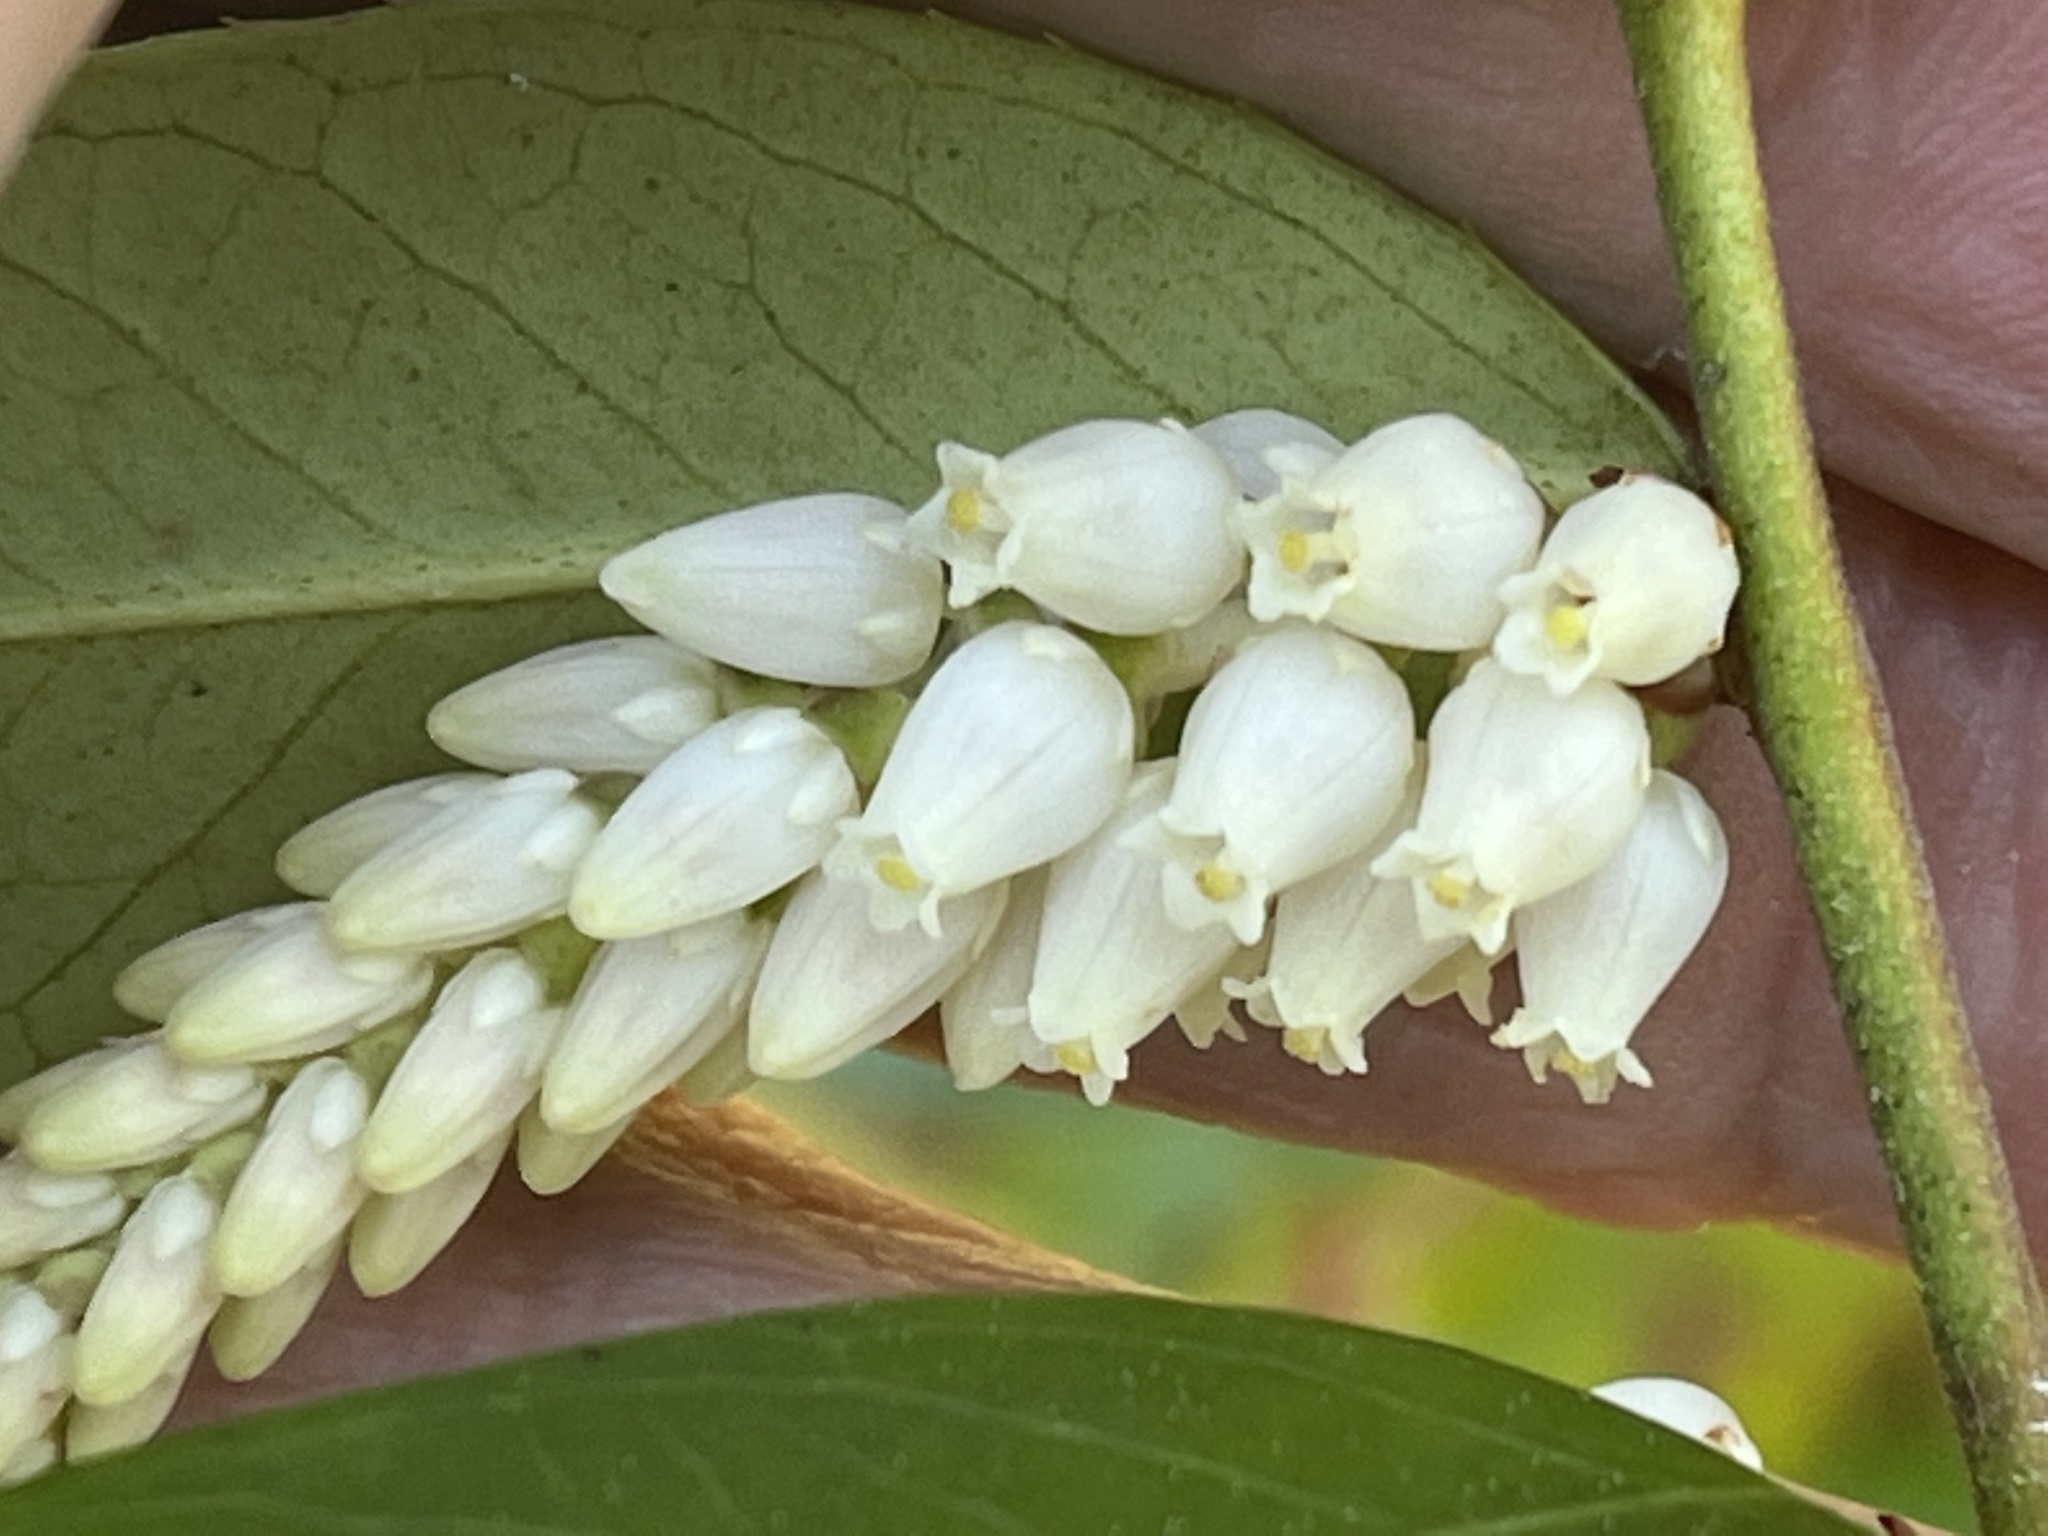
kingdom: Plantae
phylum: Tracheophyta
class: Magnoliopsida
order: Ericales
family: Ericaceae
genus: Leucothoe
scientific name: Leucothoe fontanesiana
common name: Fetterbush
